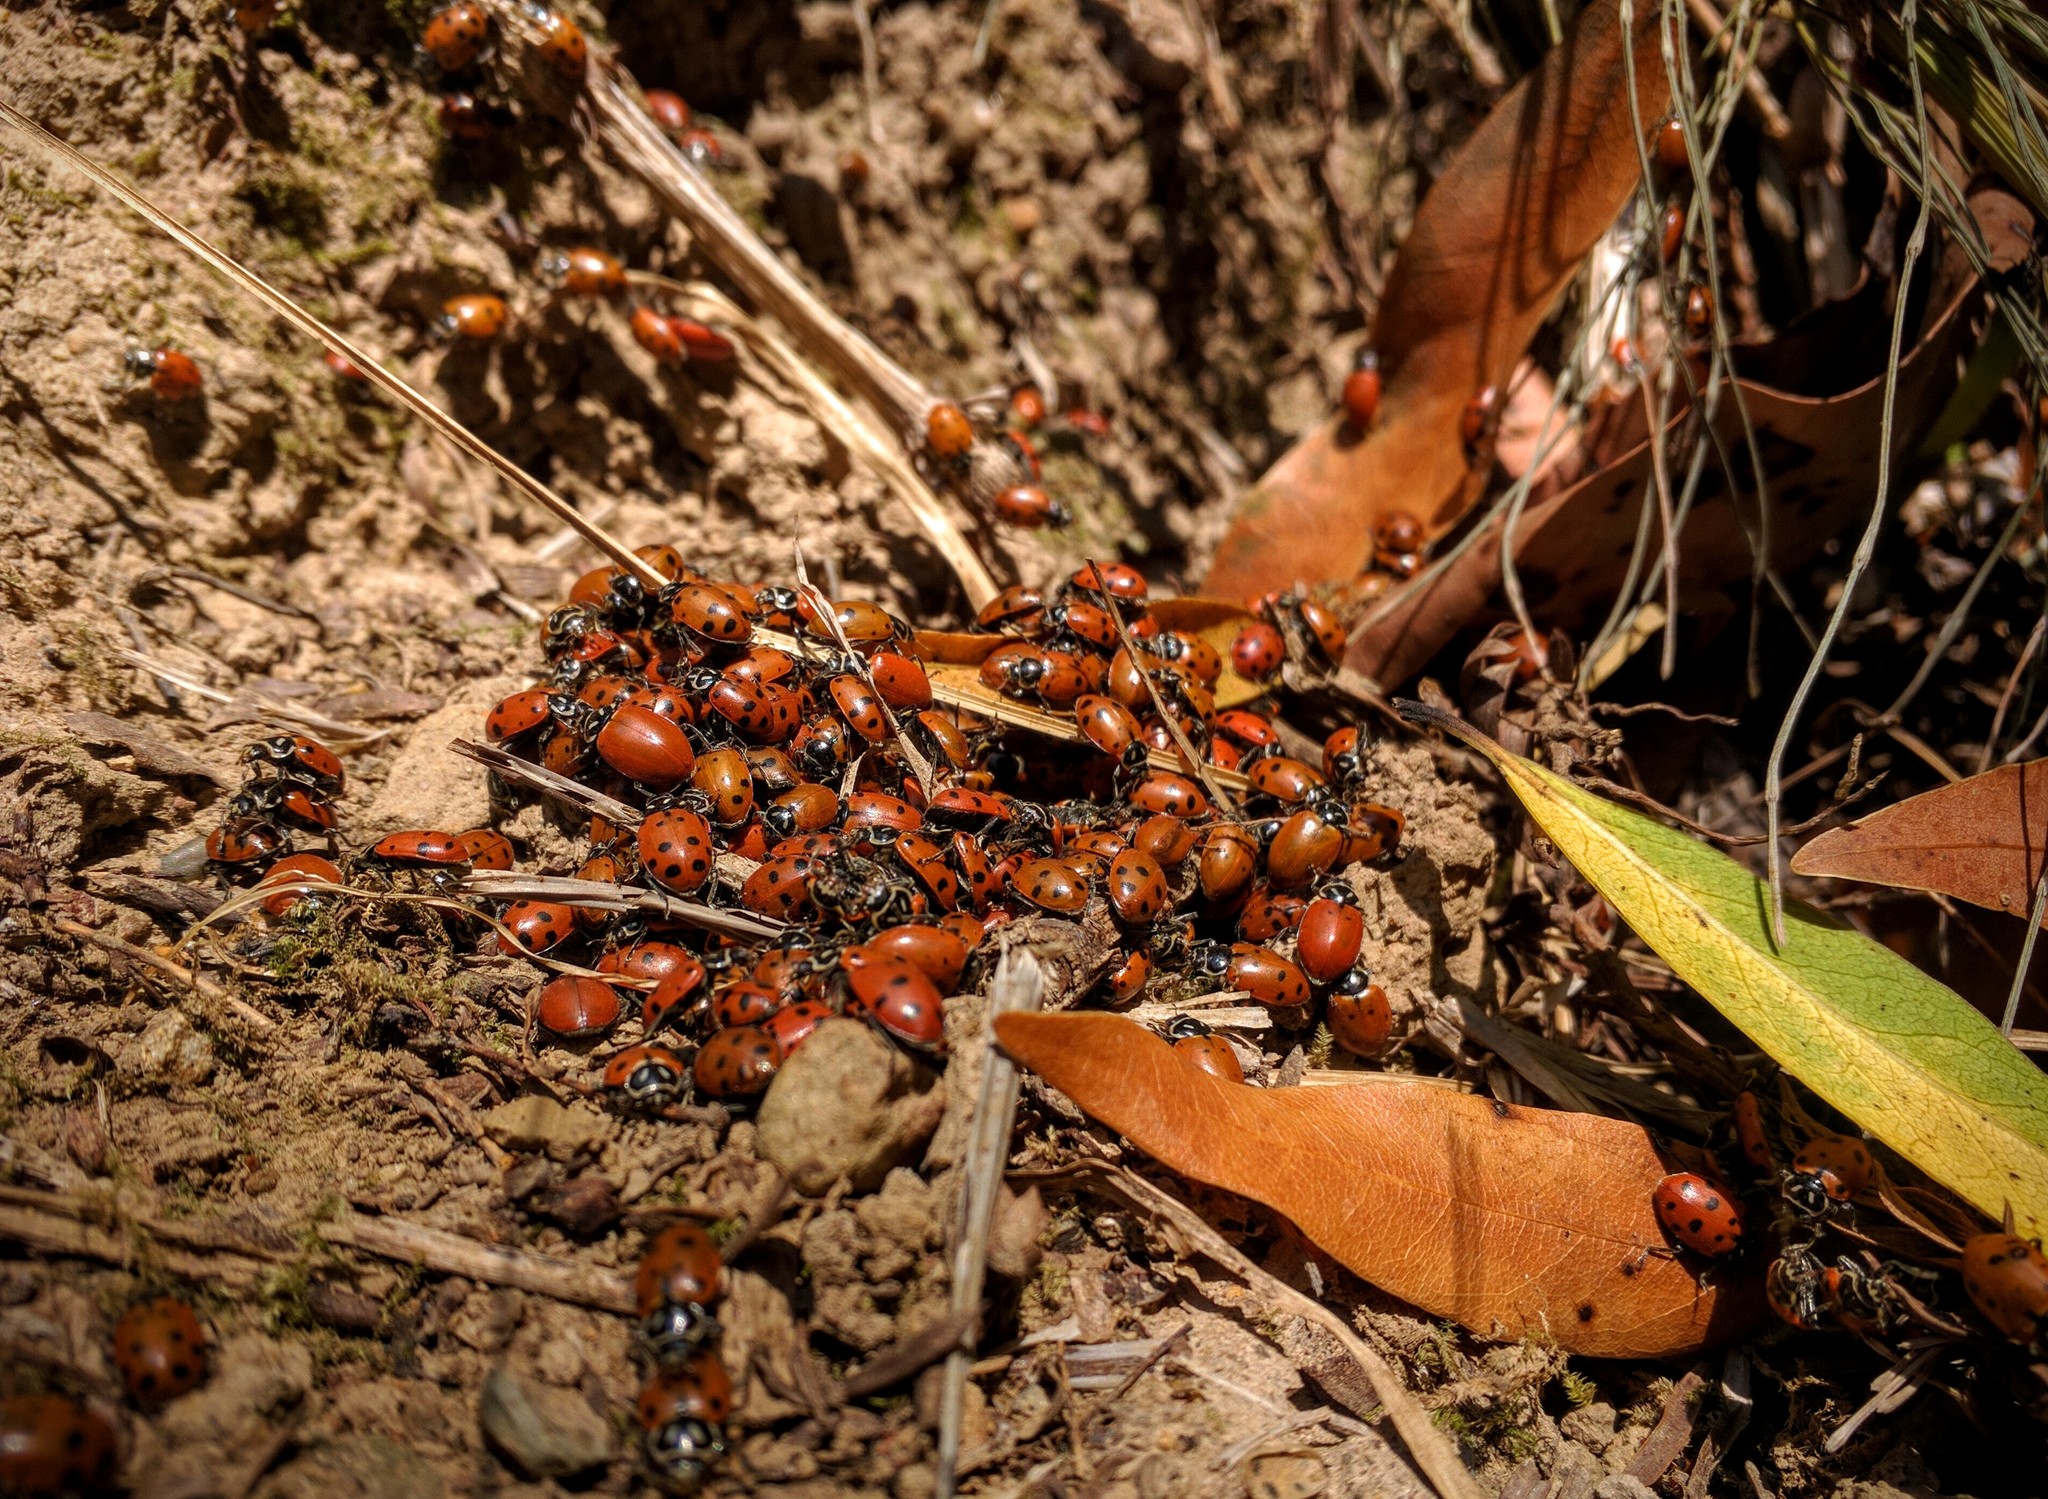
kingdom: Animalia
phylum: Arthropoda
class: Insecta
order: Coleoptera
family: Coccinellidae
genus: Hippodamia
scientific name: Hippodamia convergens
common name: Convergent lady beetle
